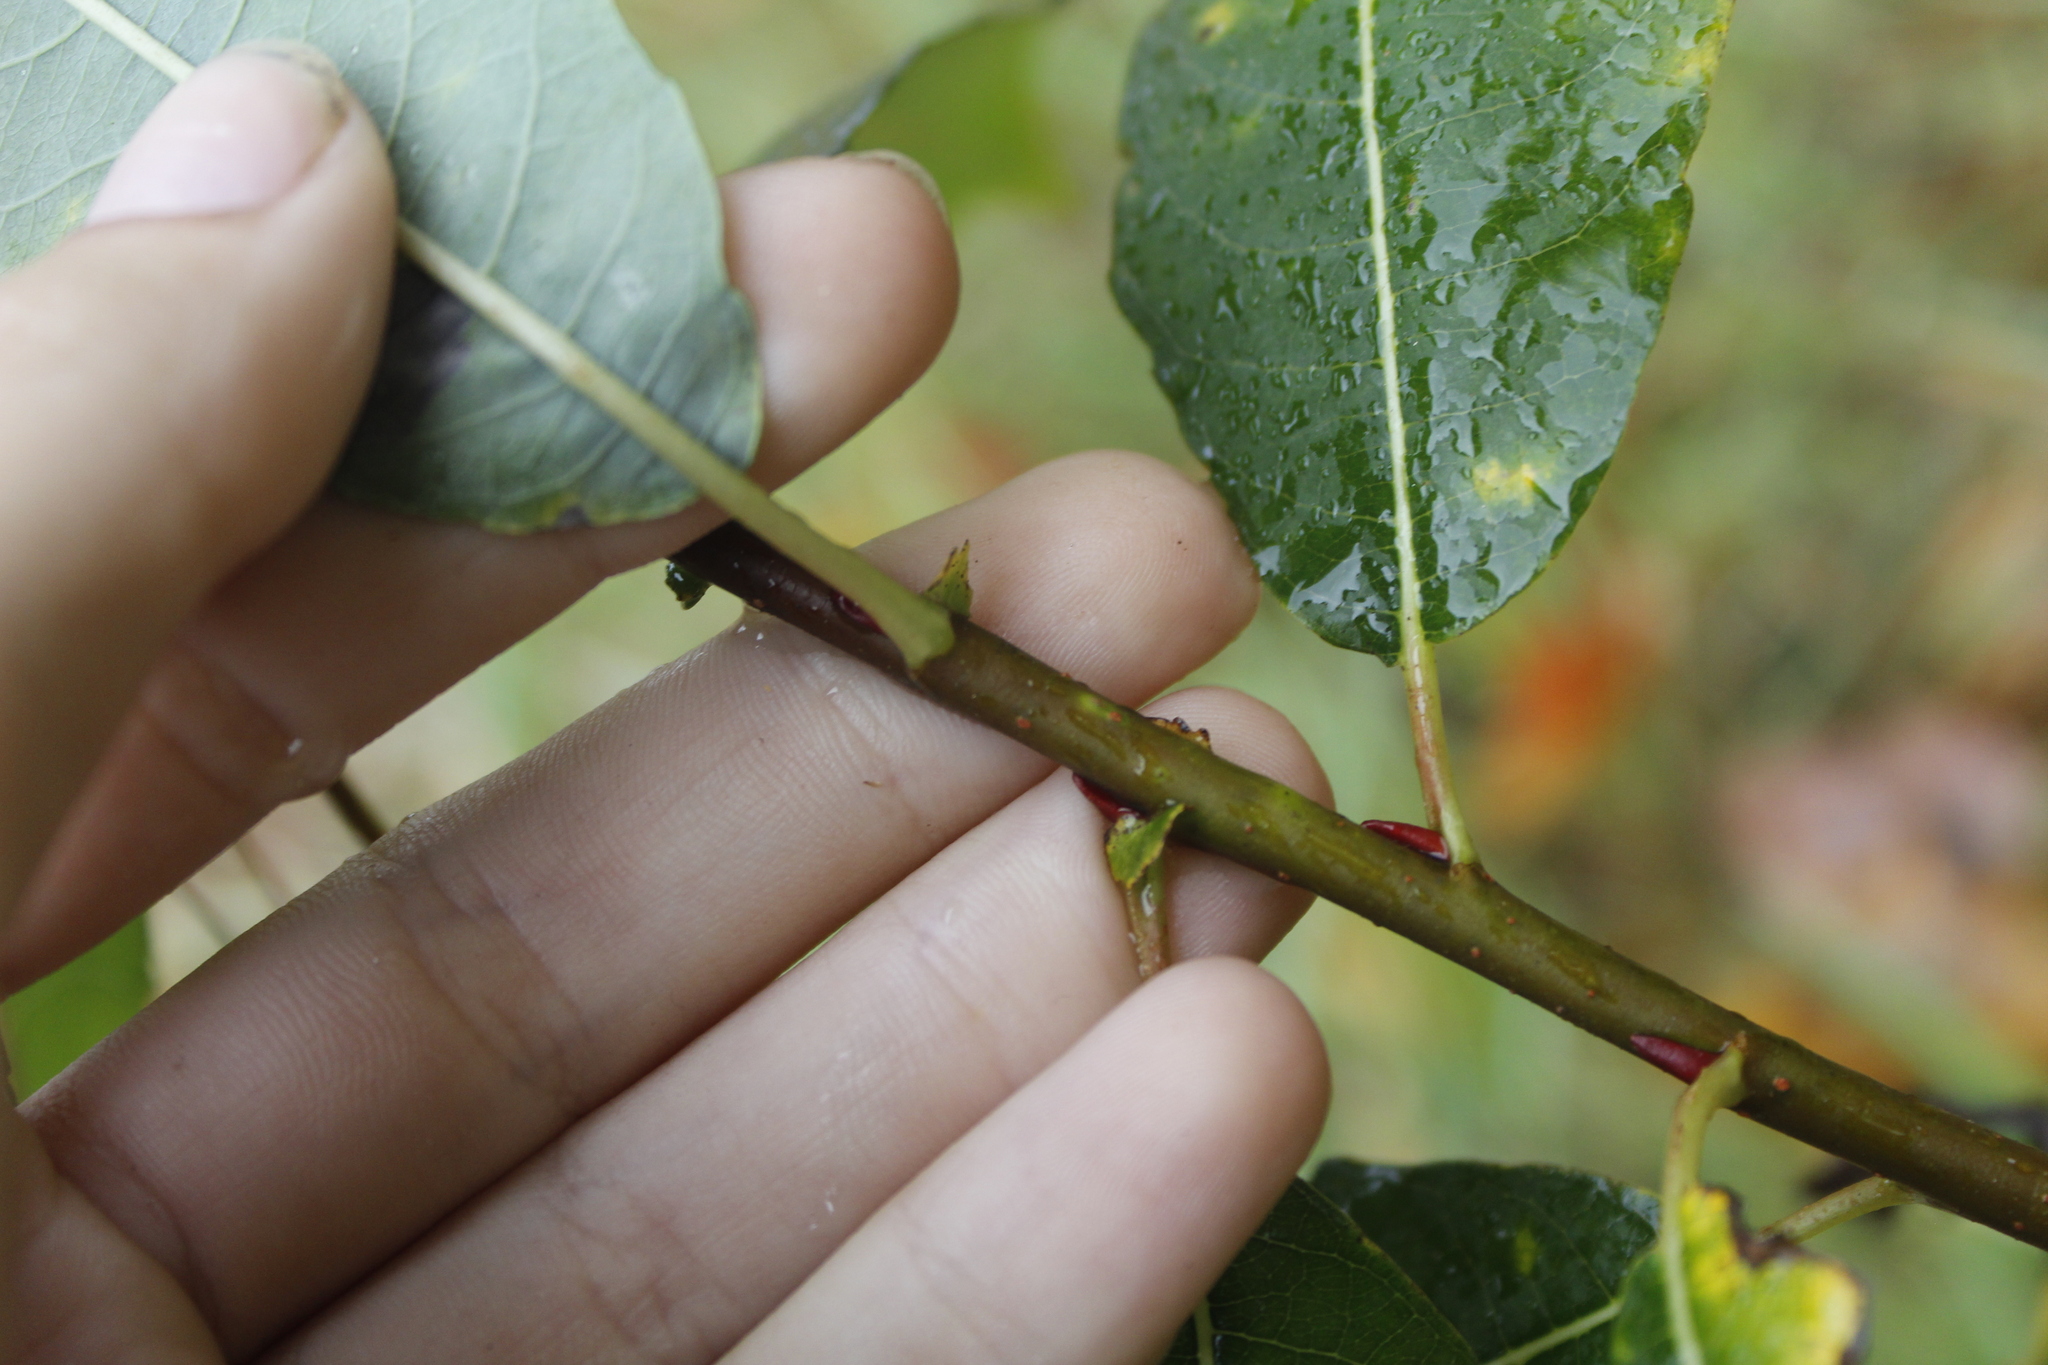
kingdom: Plantae
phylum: Tracheophyta
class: Magnoliopsida
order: Malpighiales
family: Salicaceae
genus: Salix
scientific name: Salix discolor
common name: Glaucous willow
